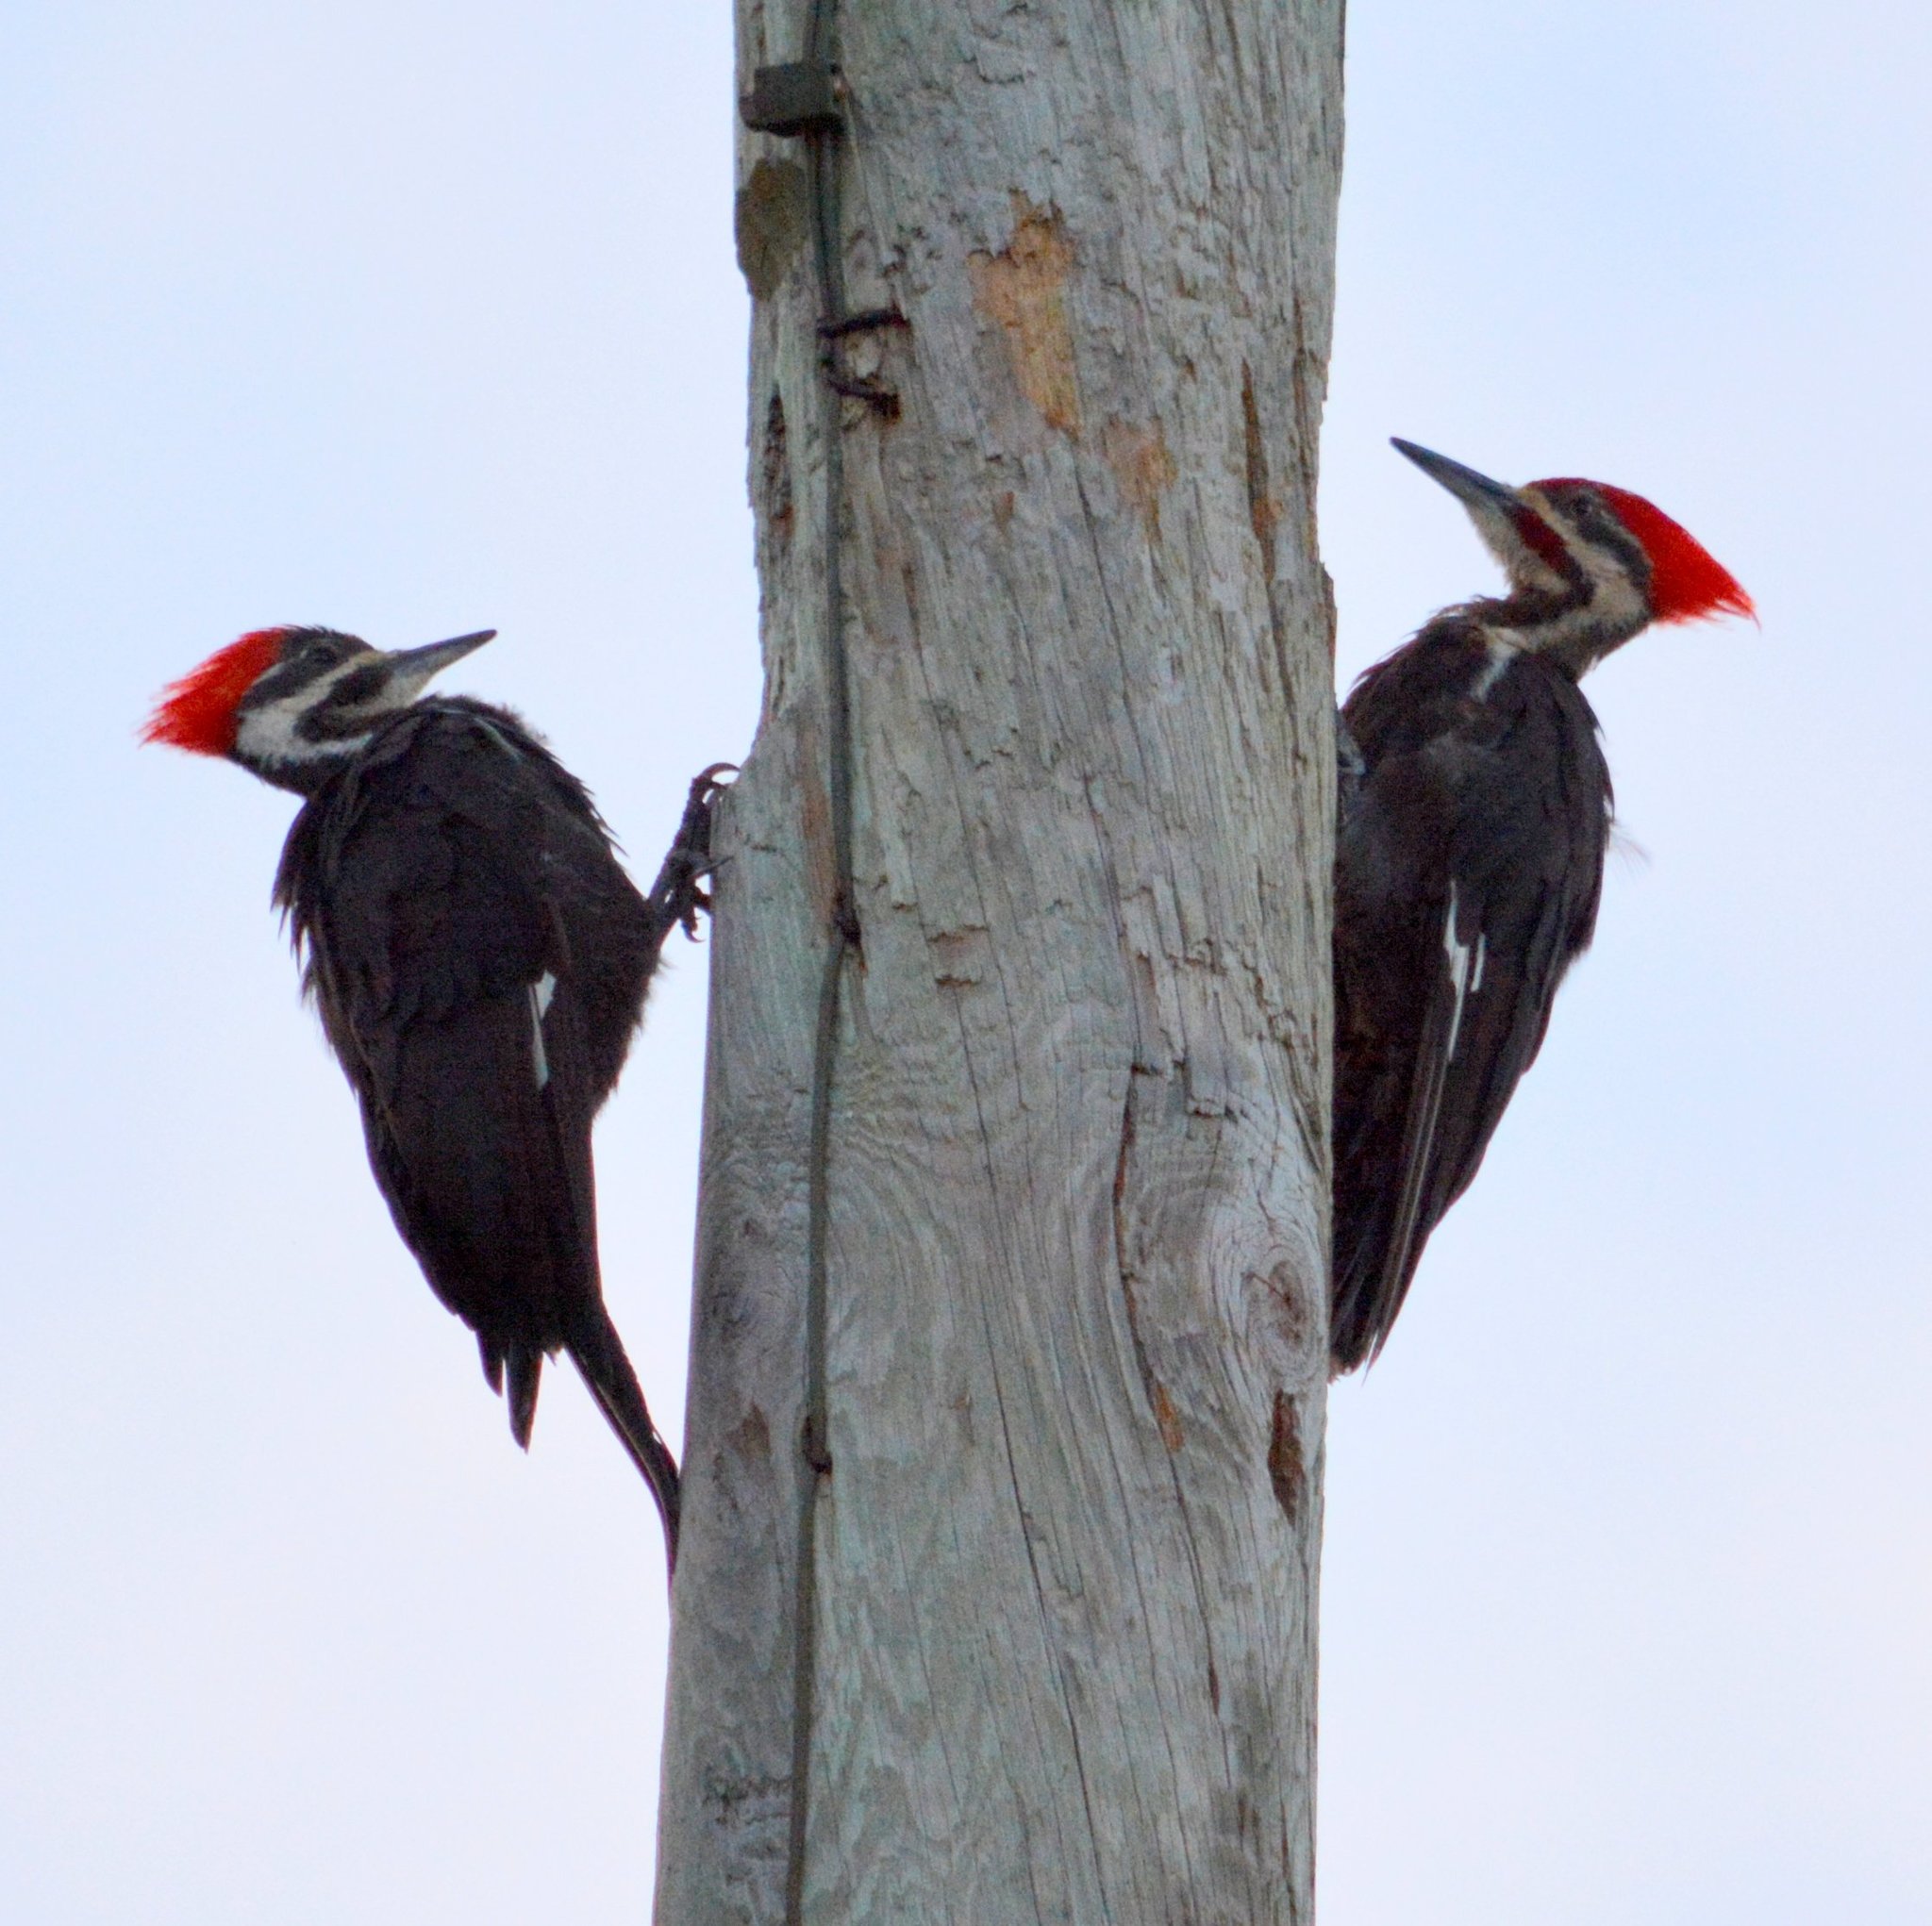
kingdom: Animalia
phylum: Chordata
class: Aves
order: Piciformes
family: Picidae
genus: Dryocopus
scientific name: Dryocopus pileatus
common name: Pileated woodpecker
